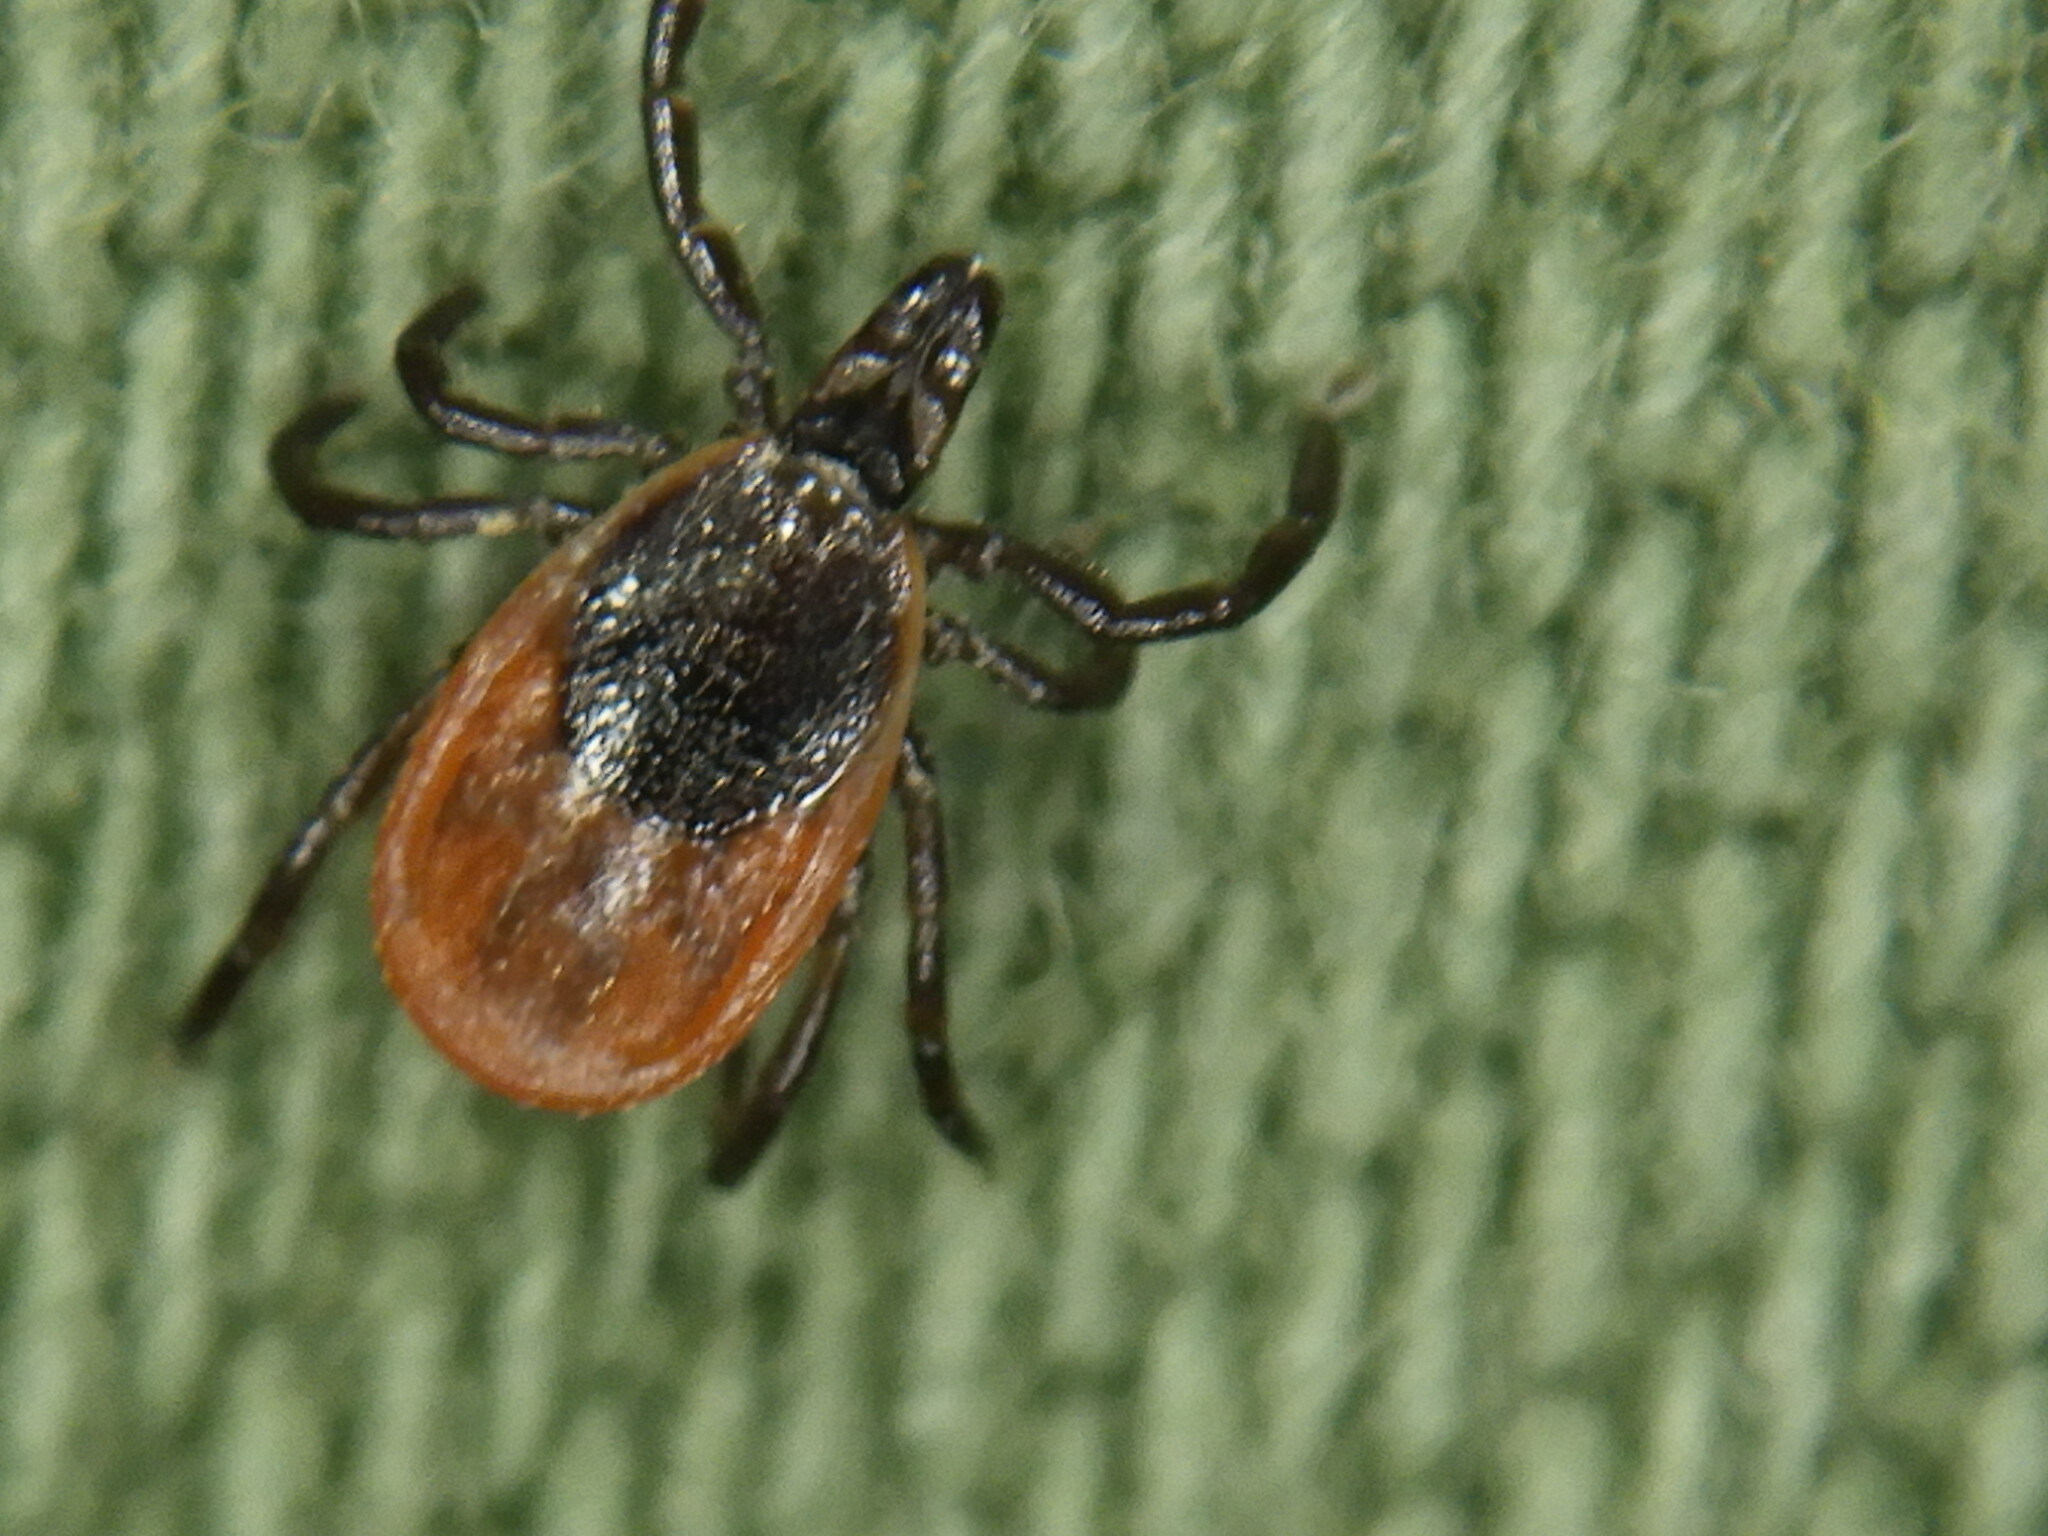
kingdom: Animalia
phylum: Arthropoda
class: Arachnida
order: Ixodida
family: Ixodidae
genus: Ixodes
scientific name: Ixodes scapularis
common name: Black legged tick
